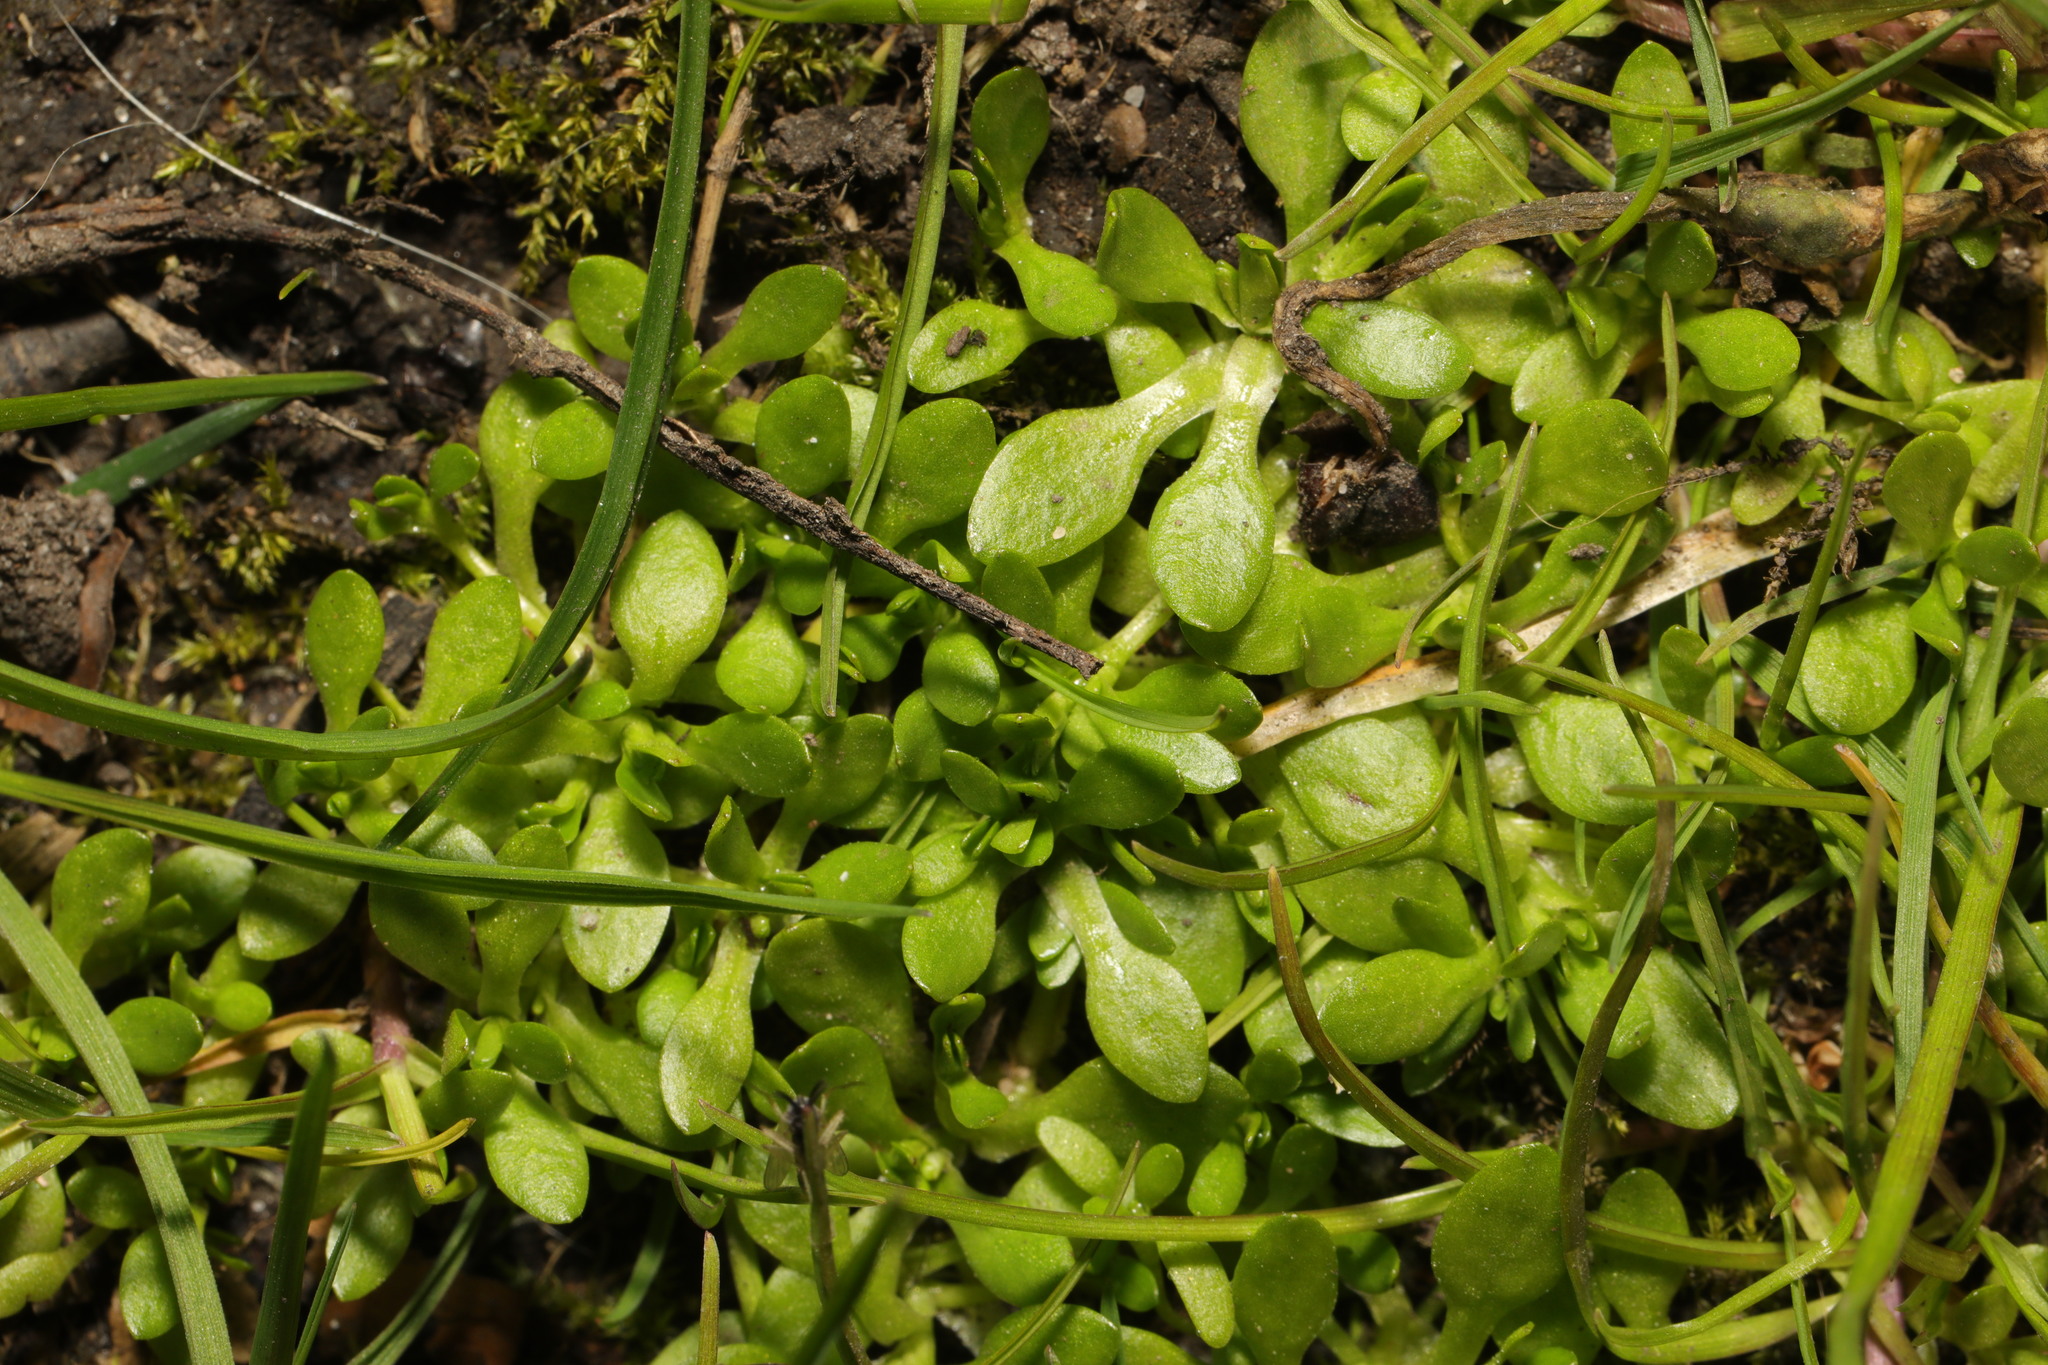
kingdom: Plantae
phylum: Tracheophyta
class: Magnoliopsida
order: Caryophyllales
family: Montiaceae
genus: Montia
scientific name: Montia fontana
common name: Blinks
